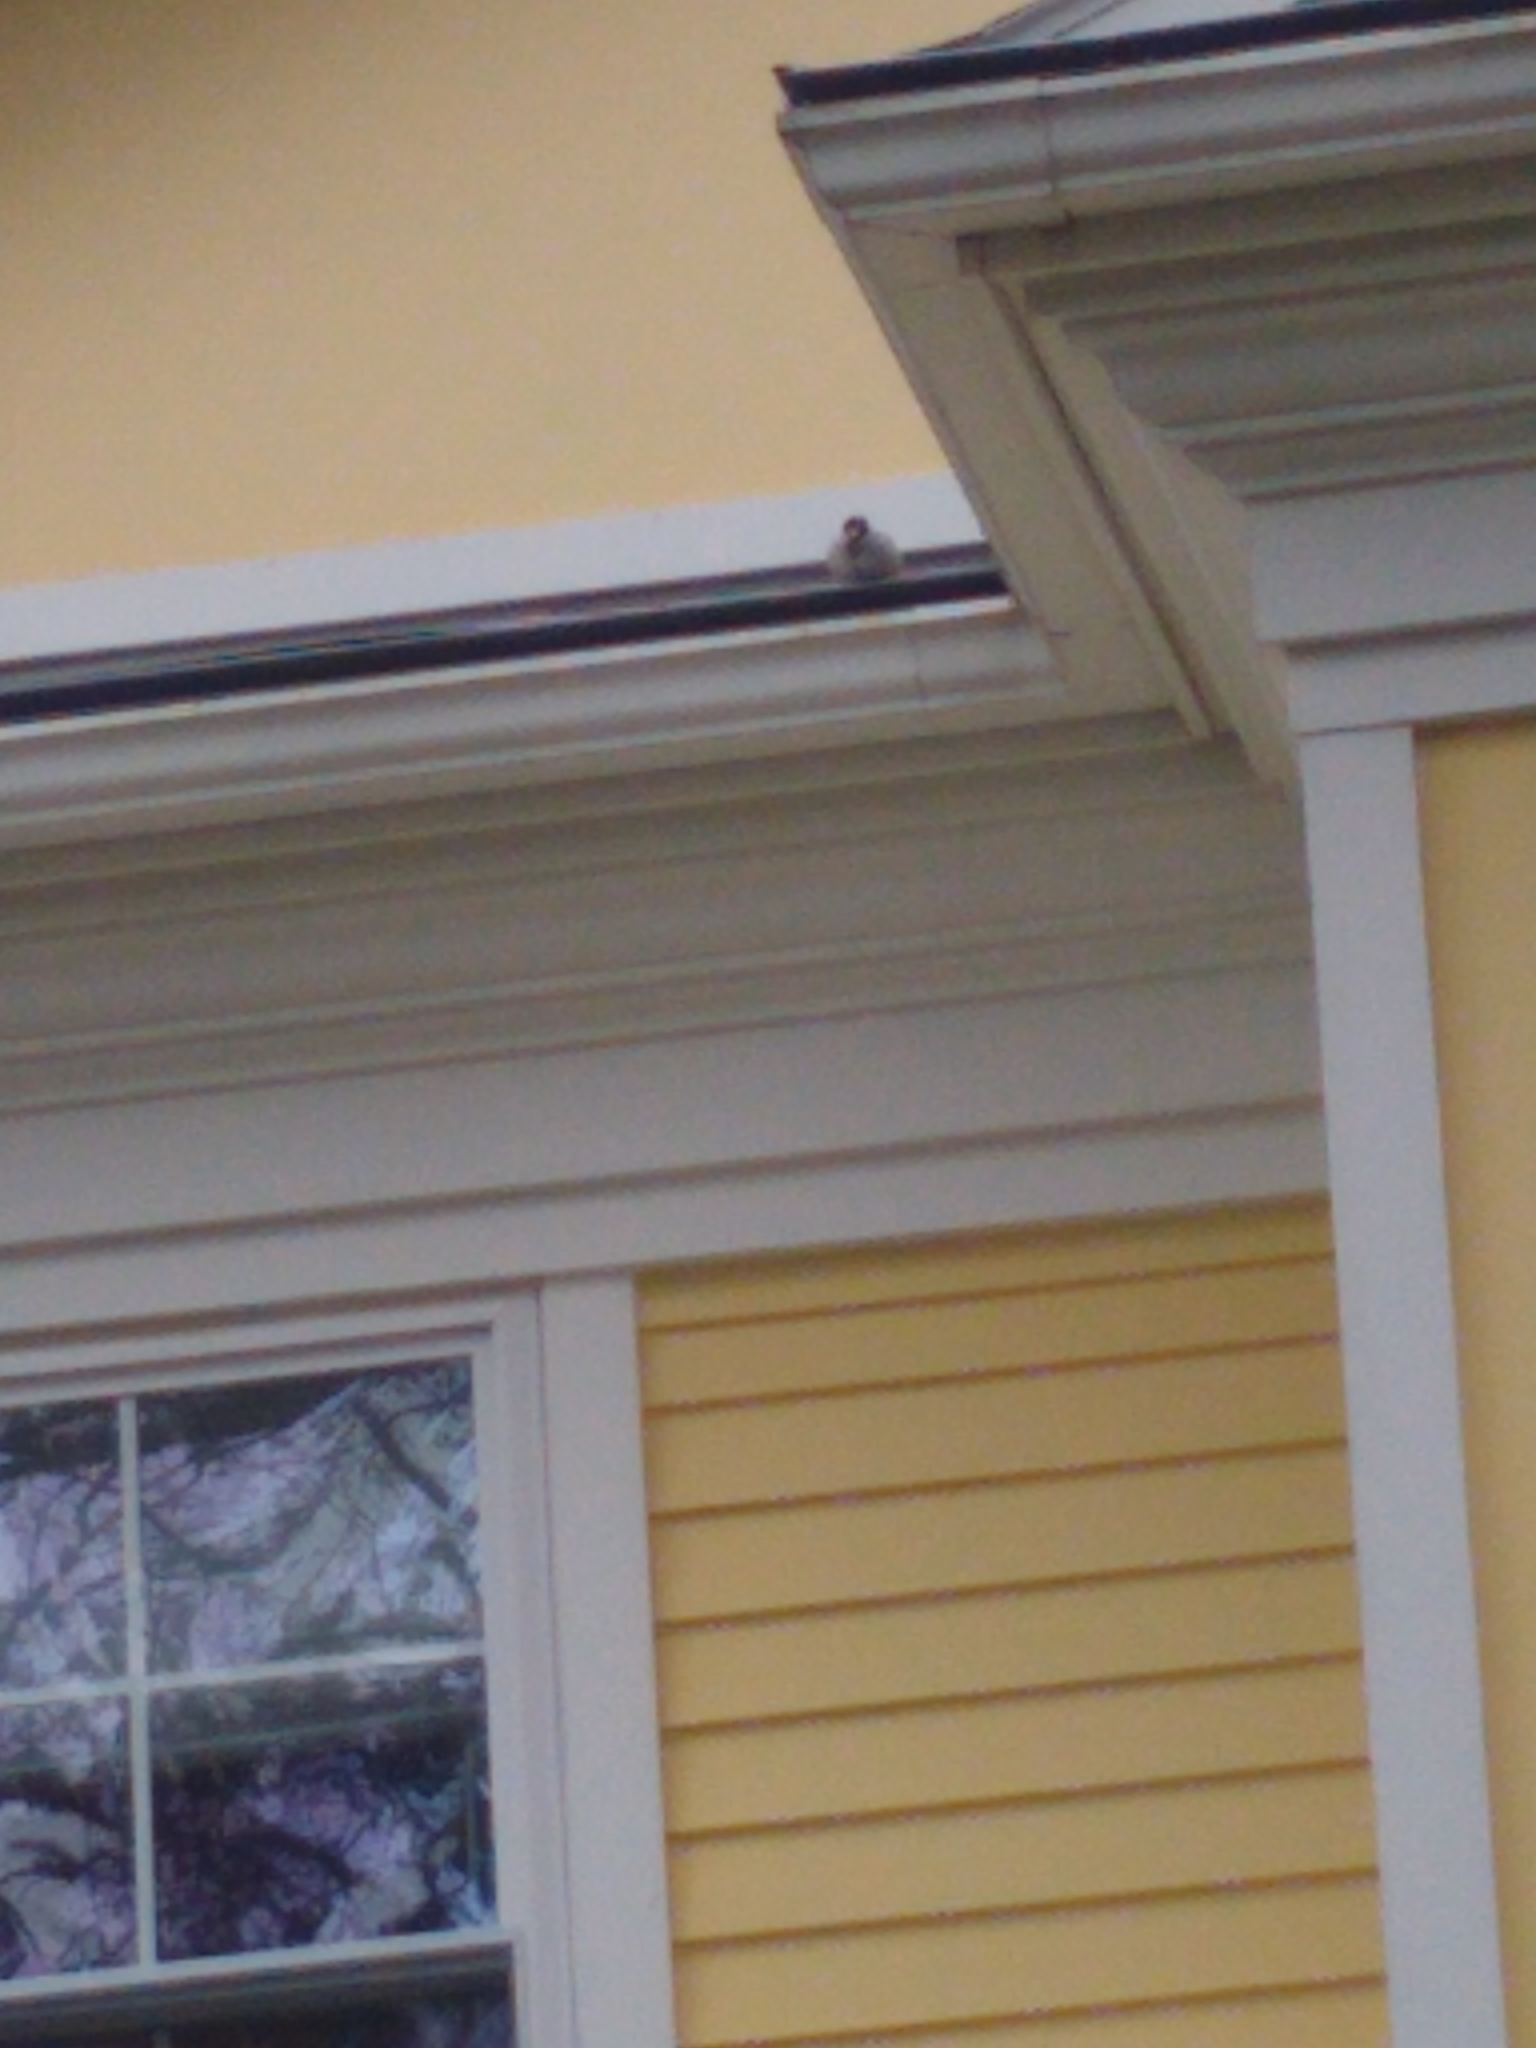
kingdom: Animalia
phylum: Chordata
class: Aves
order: Passeriformes
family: Passeridae
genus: Passer
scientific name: Passer domesticus
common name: House sparrow
